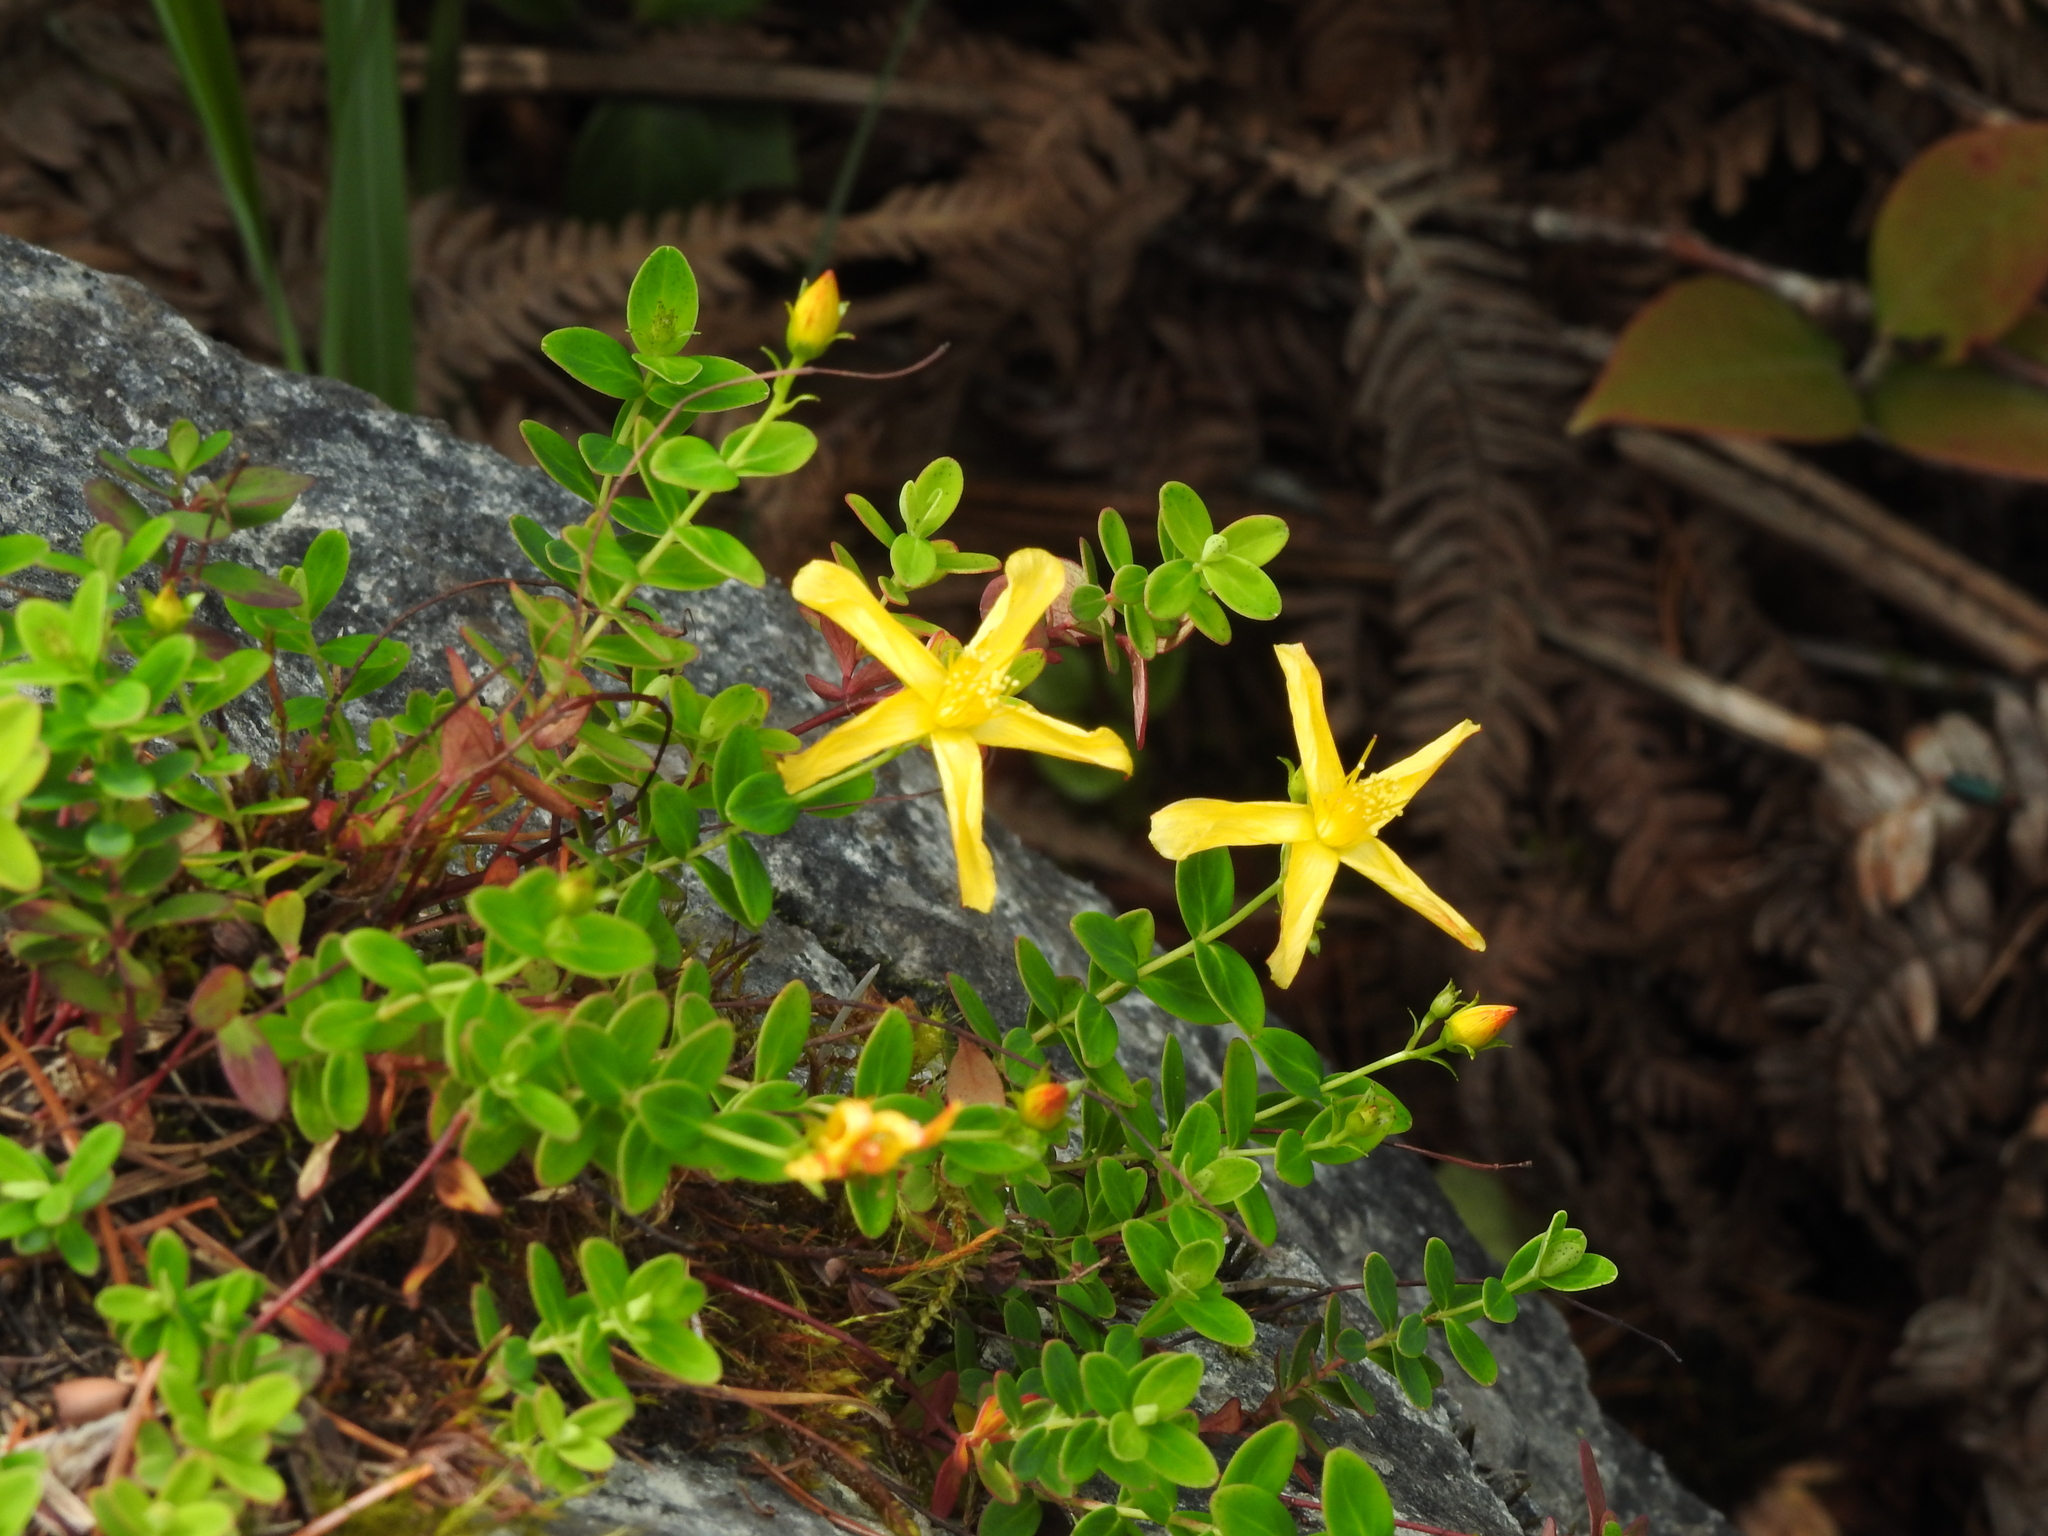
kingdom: Plantae
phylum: Tracheophyta
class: Magnoliopsida
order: Malpighiales
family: Hypericaceae
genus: Hypericum
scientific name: Hypericum nagasawae
